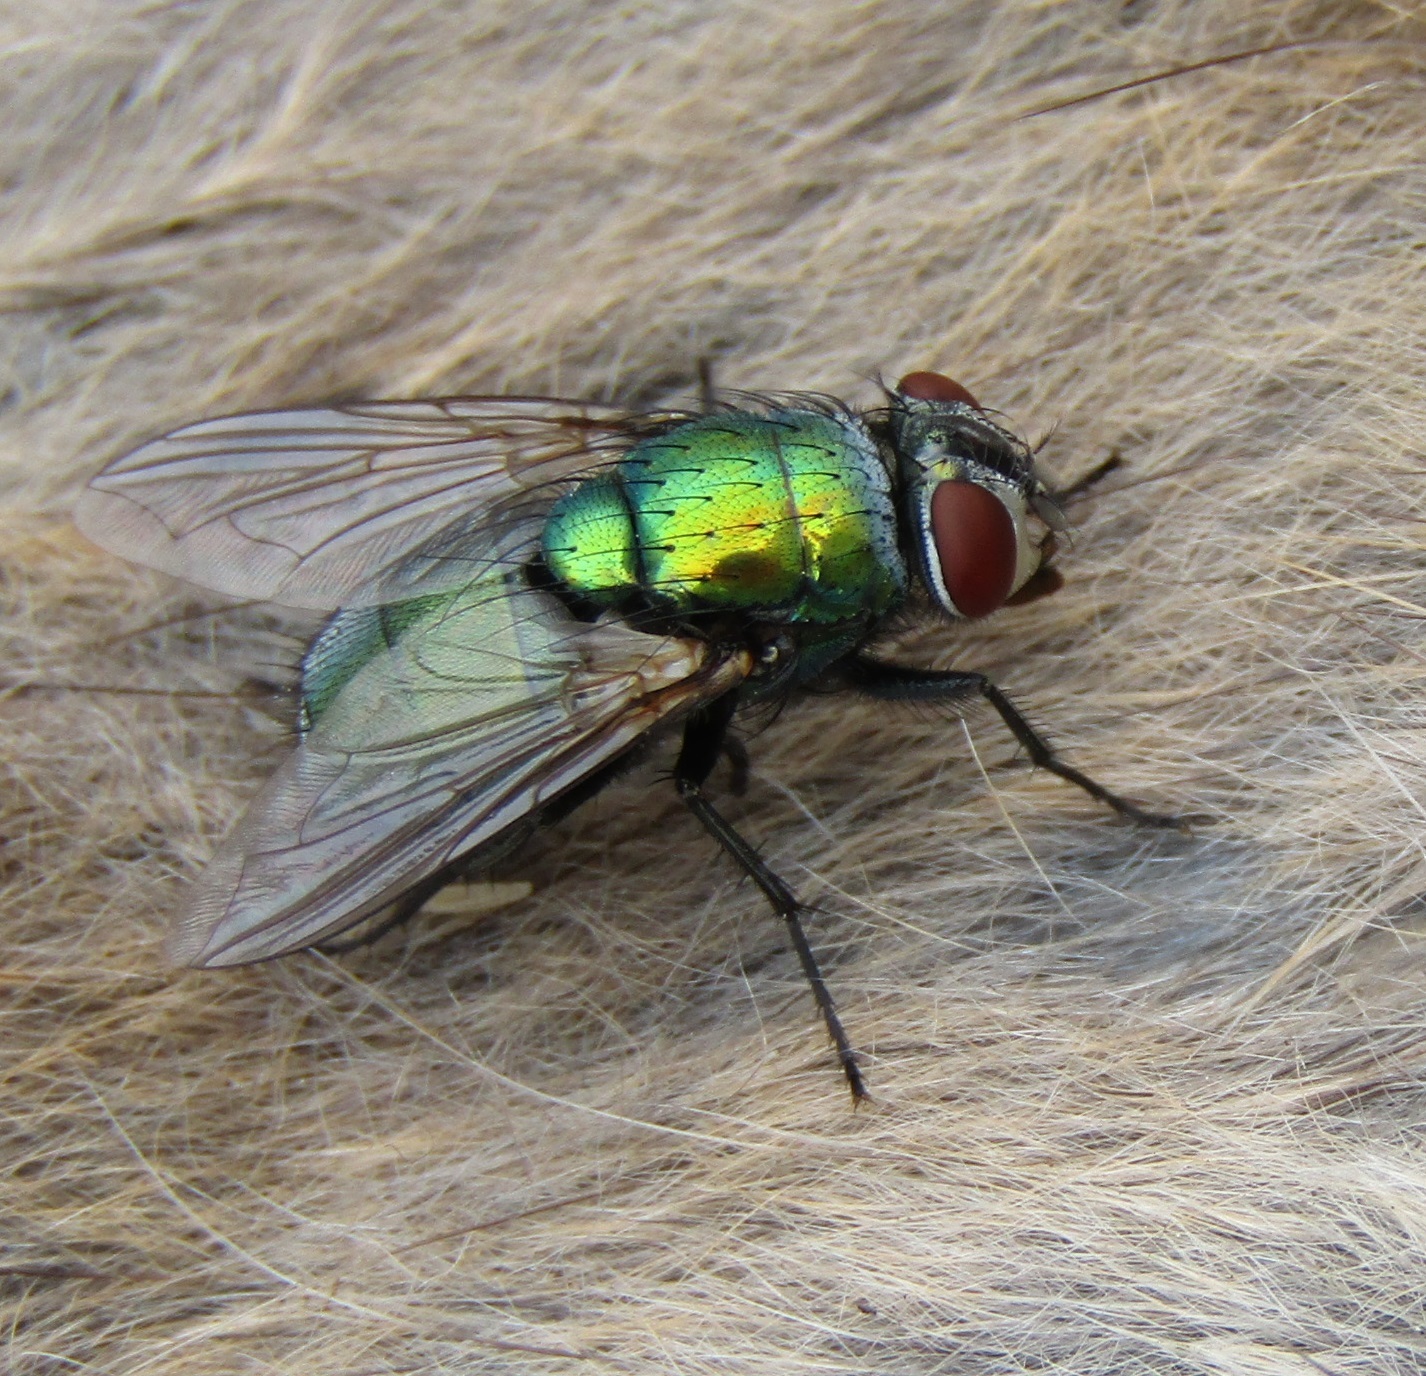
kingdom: Animalia
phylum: Arthropoda
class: Insecta
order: Diptera
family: Calliphoridae
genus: Lucilia
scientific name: Lucilia sericata
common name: Blow fly
